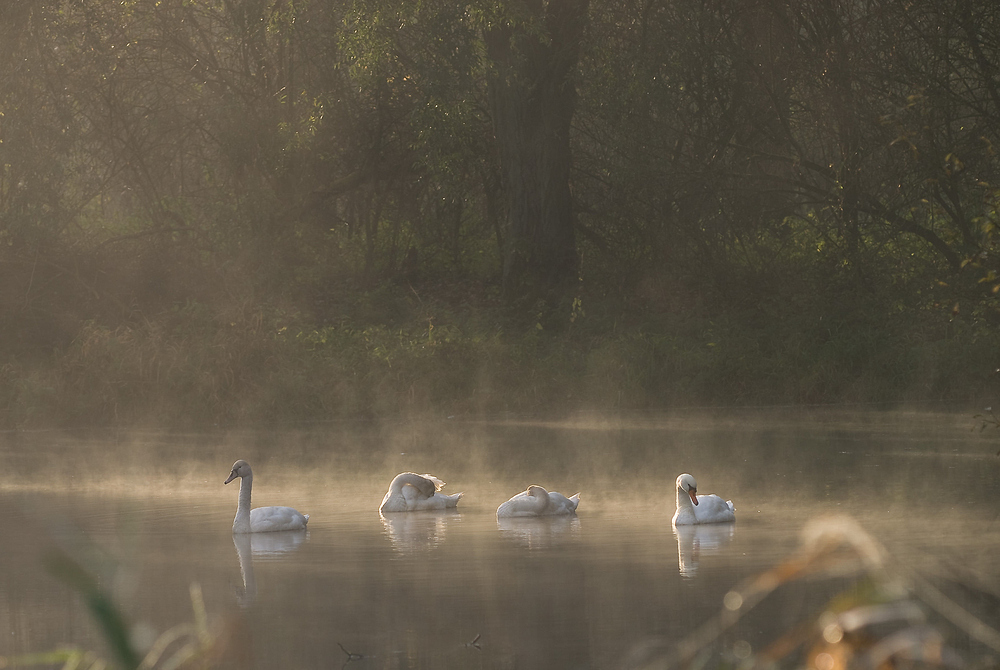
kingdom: Animalia
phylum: Chordata
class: Aves
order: Anseriformes
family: Anatidae
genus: Cygnus
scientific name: Cygnus olor
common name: Mute swan
